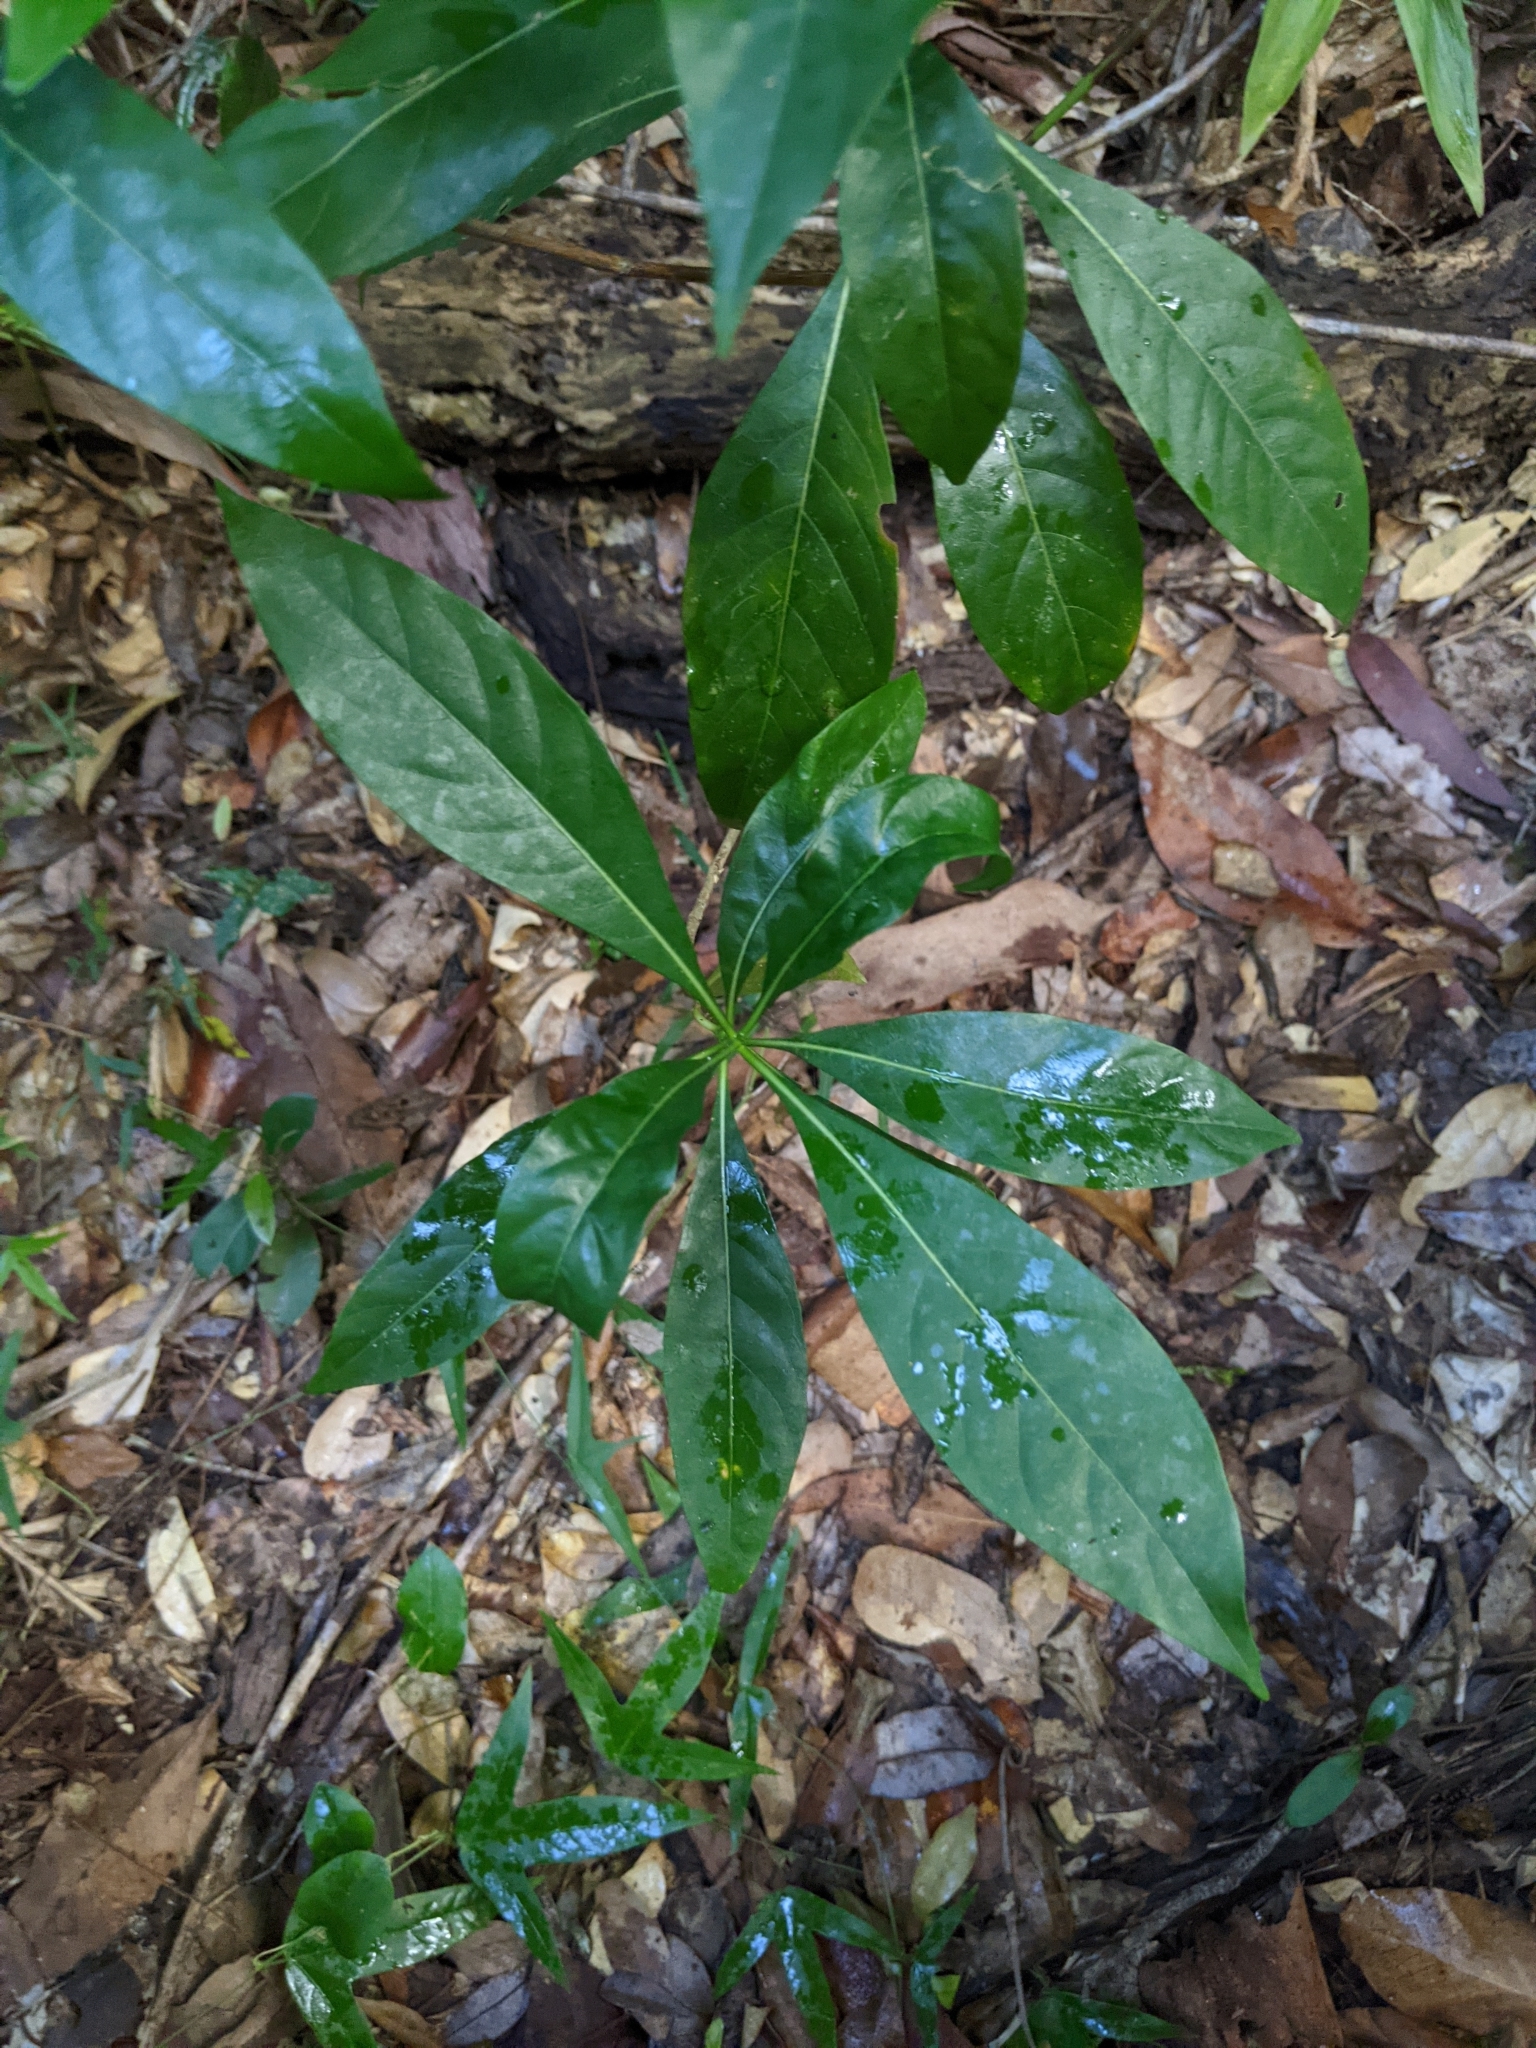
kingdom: Plantae
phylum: Tracheophyta
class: Magnoliopsida
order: Gentianales
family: Rubiaceae
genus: Pavetta
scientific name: Pavetta australiensis
